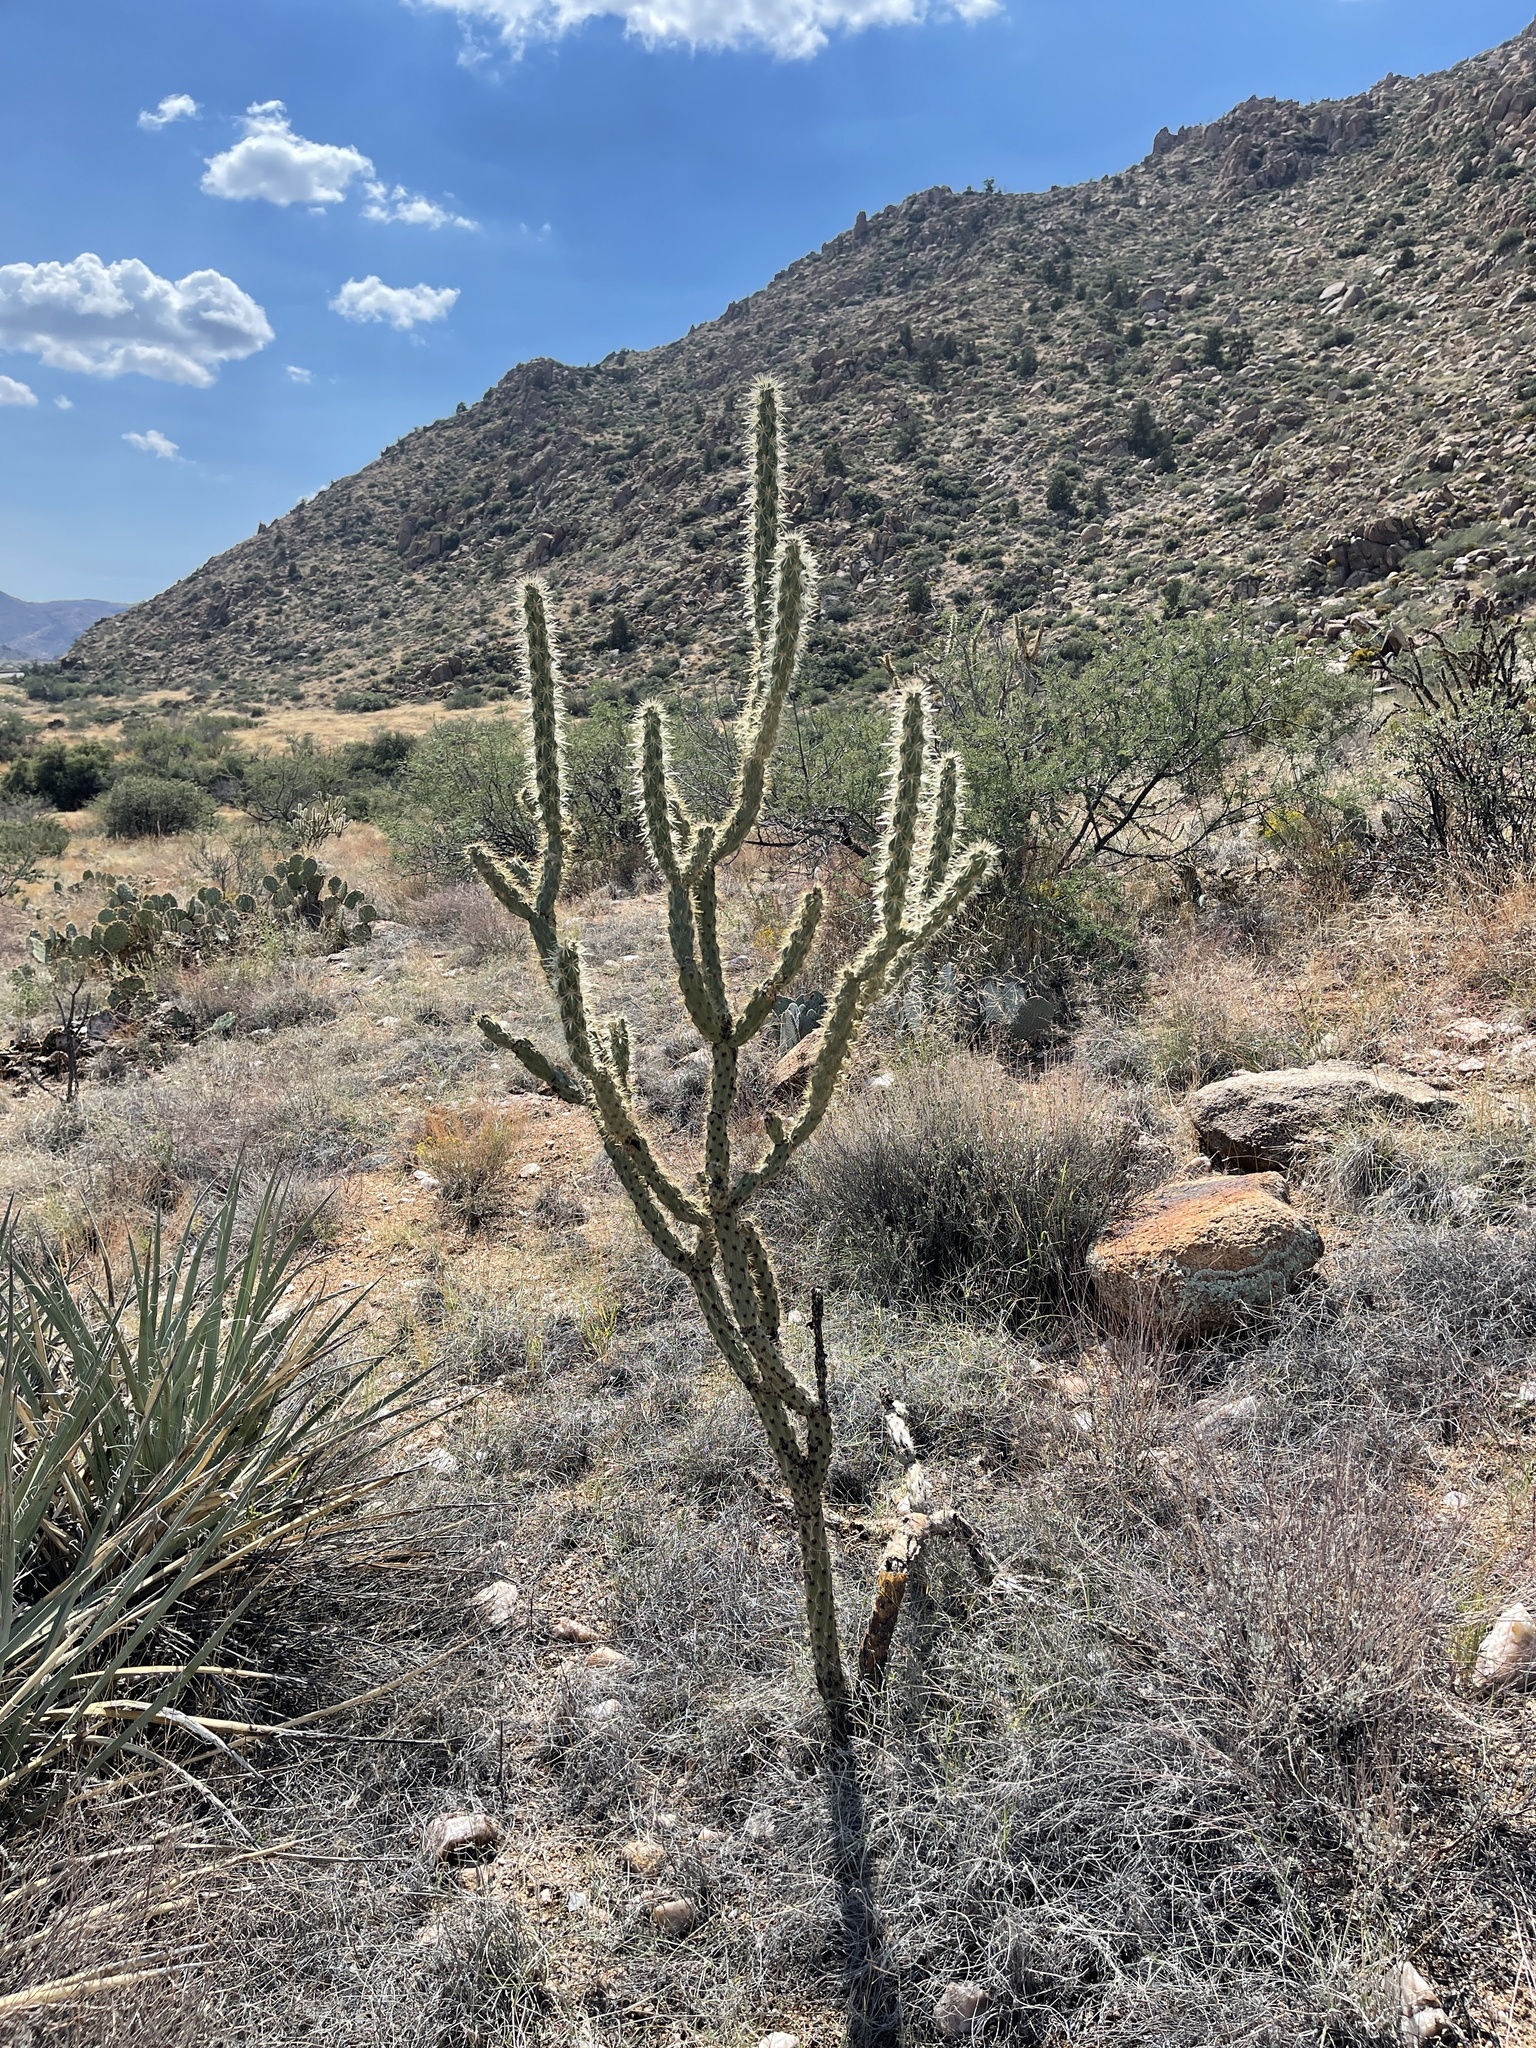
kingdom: Plantae
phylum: Tracheophyta
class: Magnoliopsida
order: Caryophyllales
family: Cactaceae
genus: Cylindropuntia
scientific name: Cylindropuntia acanthocarpa
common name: Buckhorn cholla
